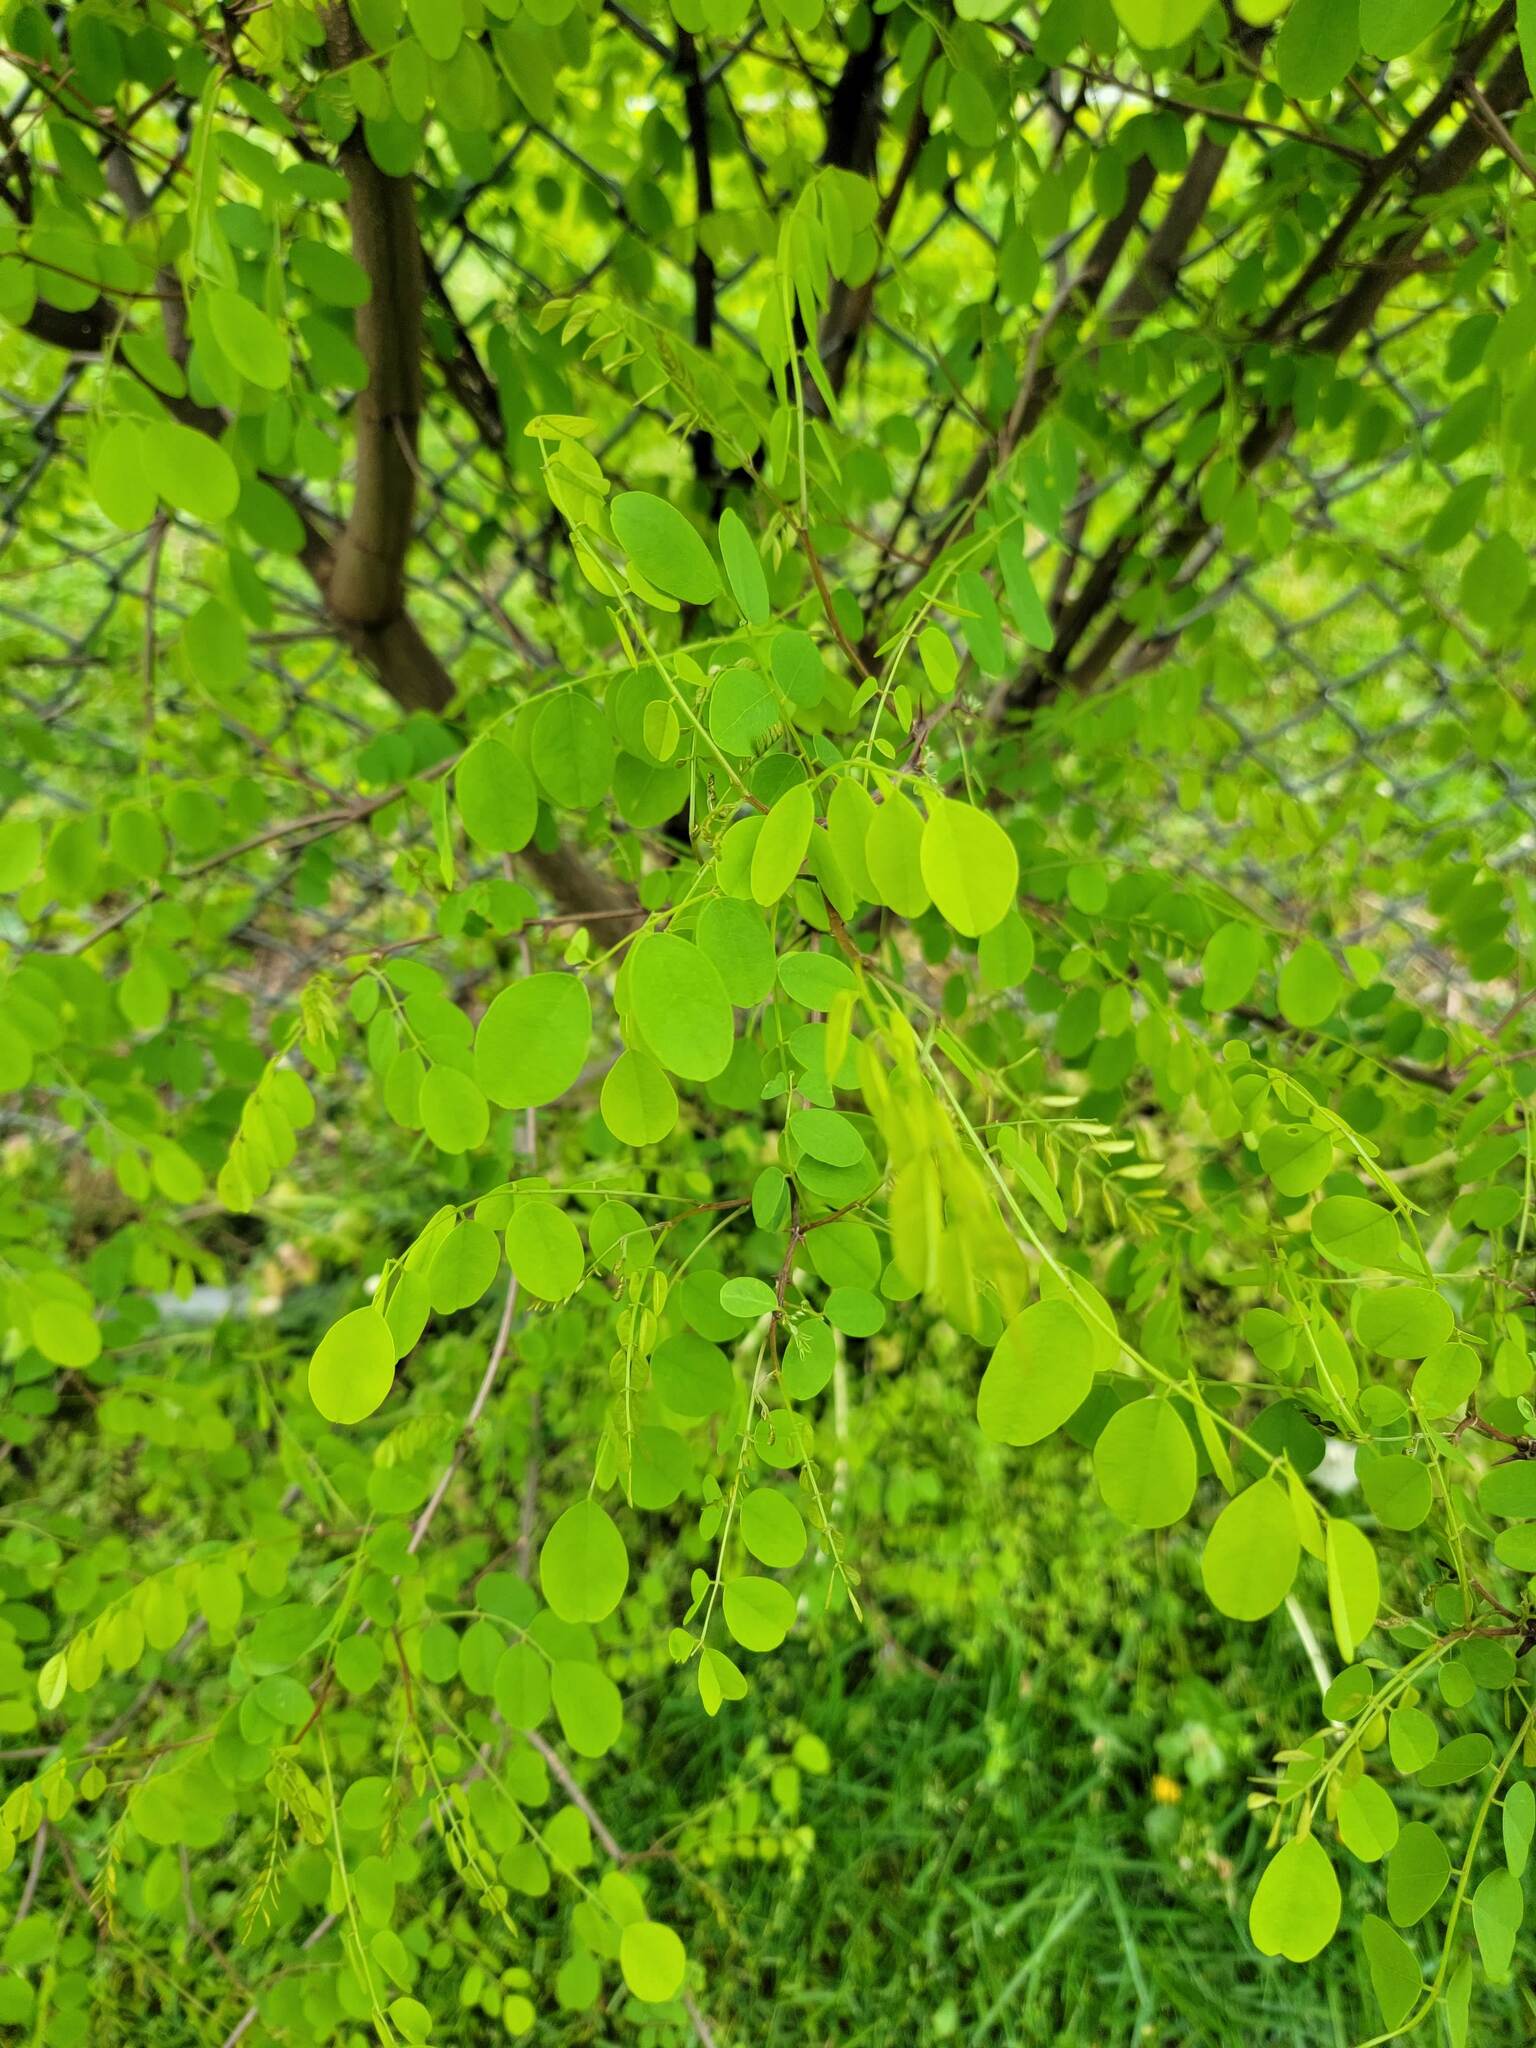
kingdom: Plantae
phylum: Tracheophyta
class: Magnoliopsida
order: Fabales
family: Fabaceae
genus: Robinia
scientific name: Robinia pseudoacacia
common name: Black locust
